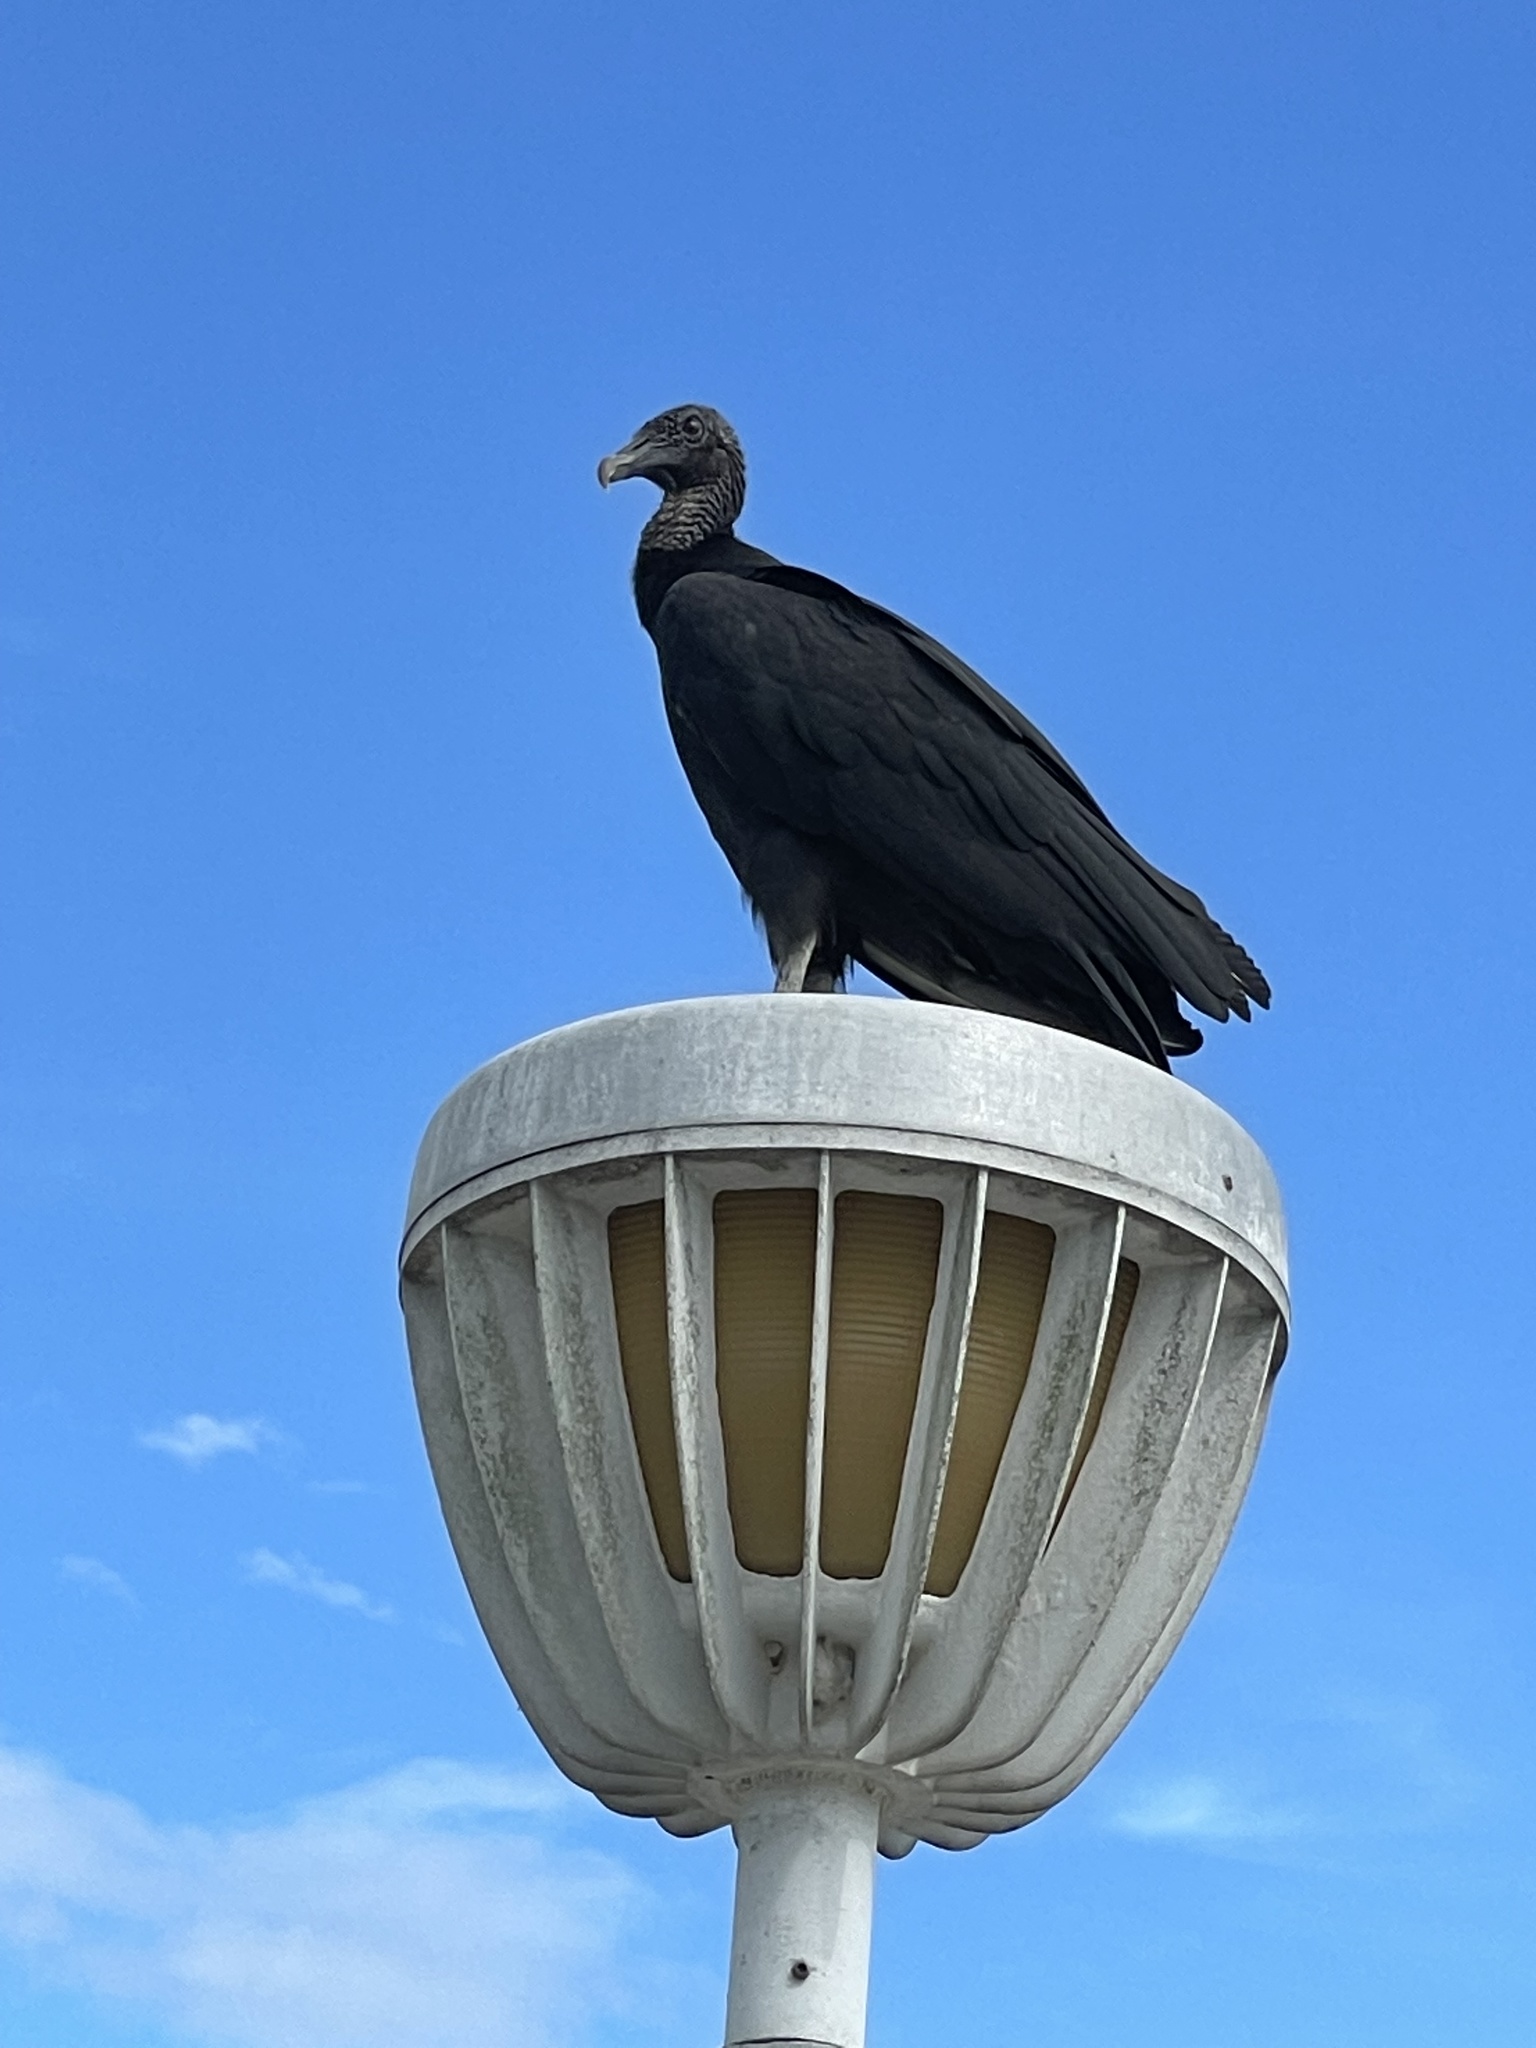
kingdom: Animalia
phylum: Chordata
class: Aves
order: Accipitriformes
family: Cathartidae
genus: Coragyps
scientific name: Coragyps atratus
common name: Black vulture
